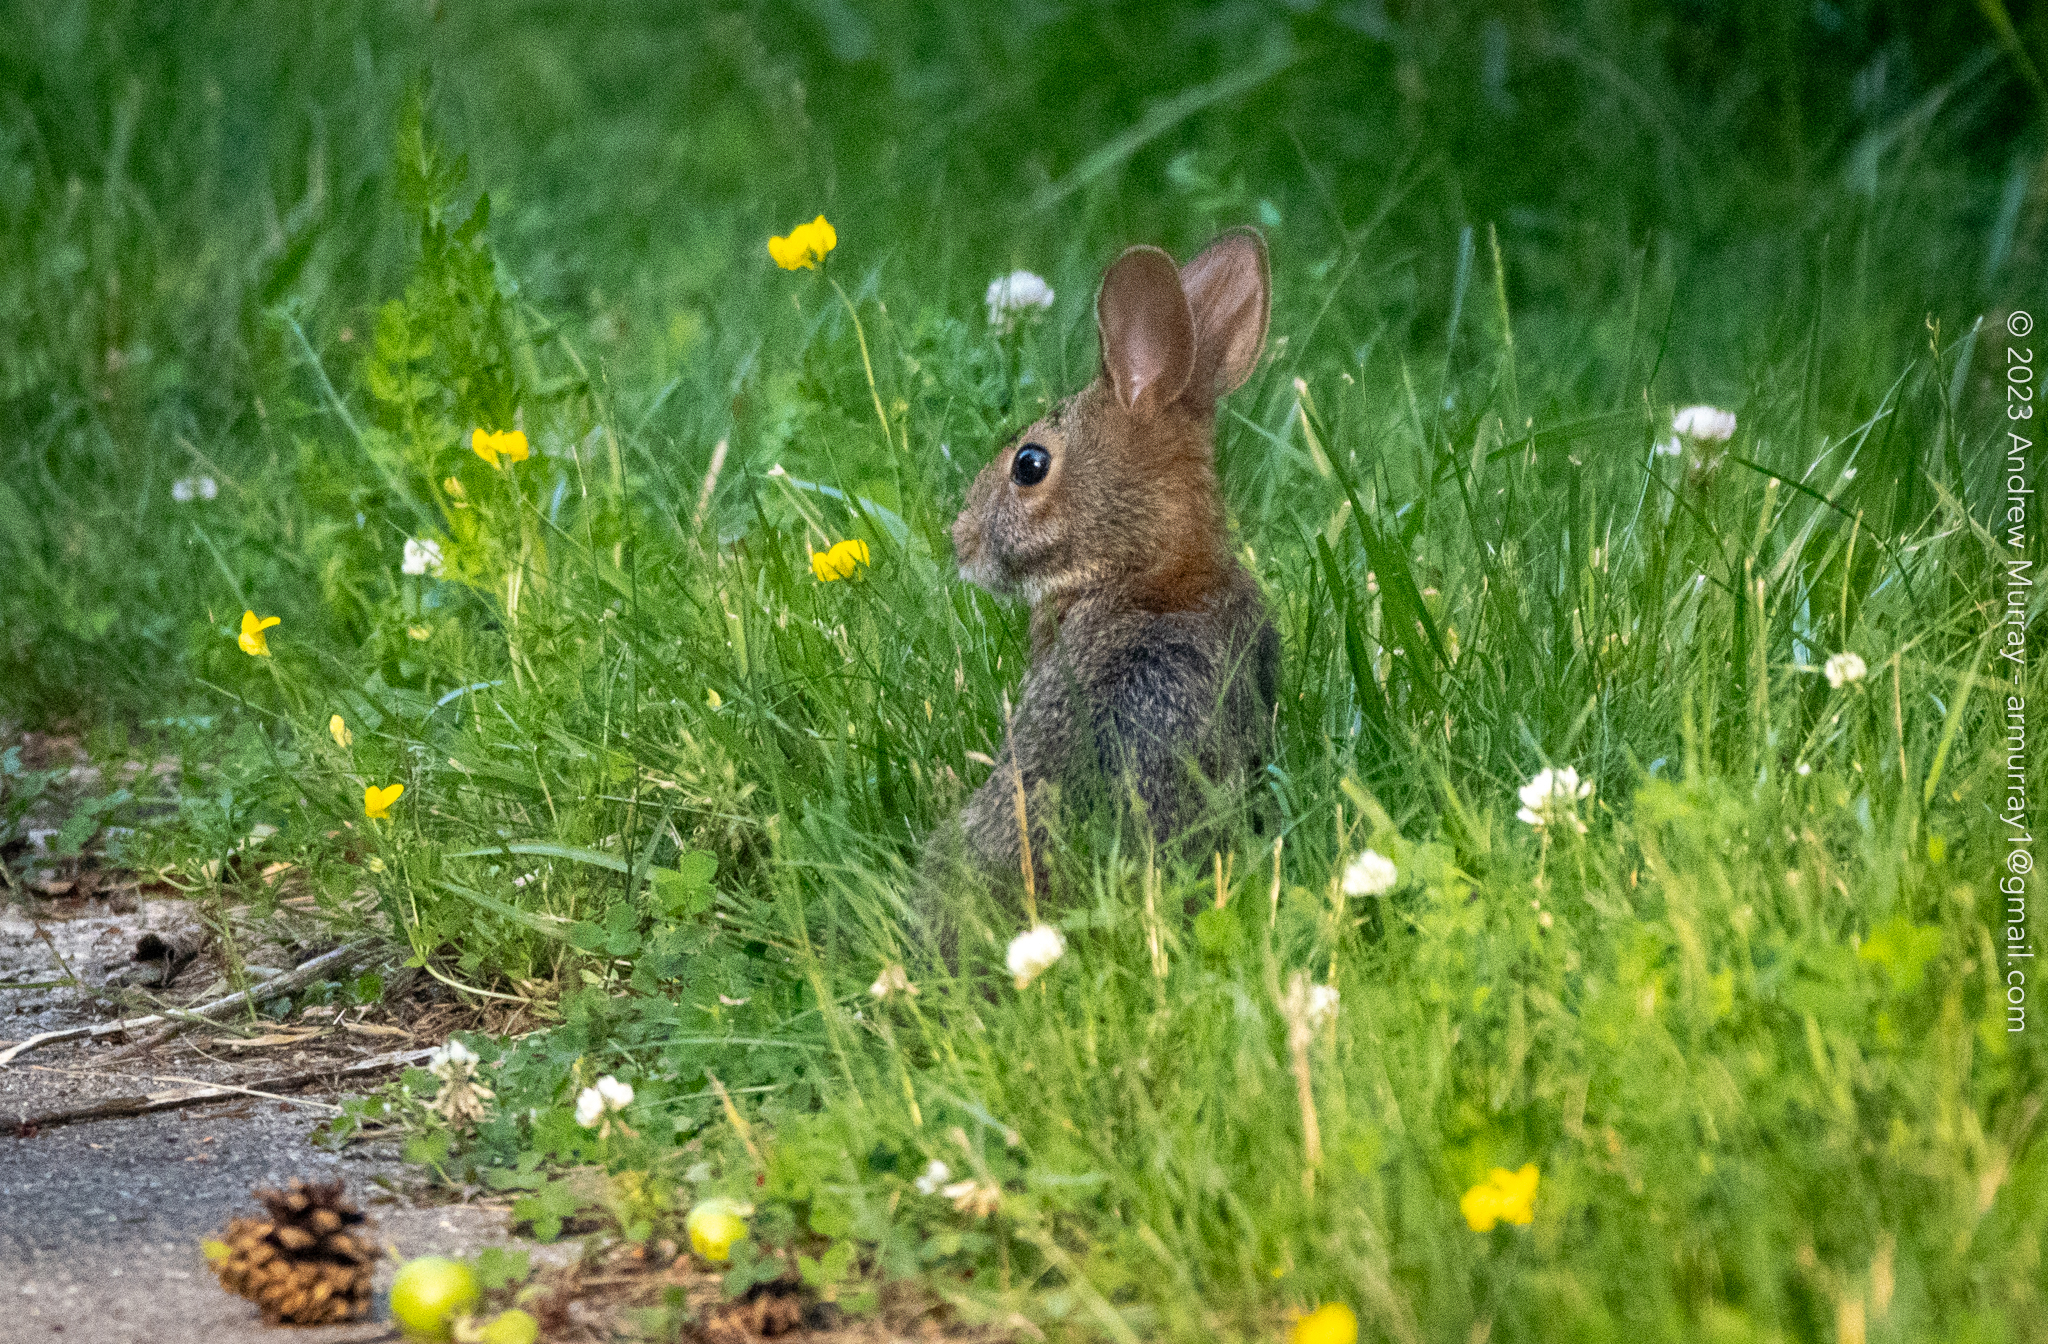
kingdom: Animalia
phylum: Chordata
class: Mammalia
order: Lagomorpha
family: Leporidae
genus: Sylvilagus
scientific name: Sylvilagus floridanus
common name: Eastern cottontail
